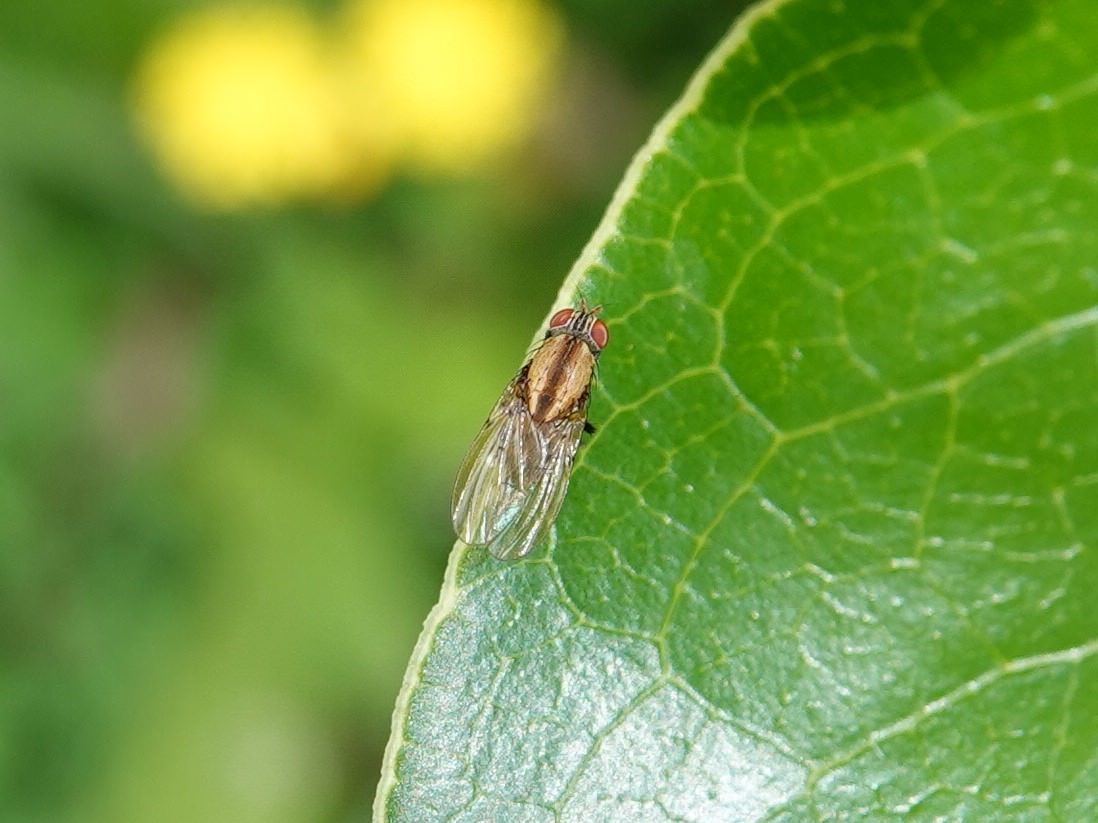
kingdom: Animalia
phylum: Arthropoda
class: Insecta
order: Diptera
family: Lauxaniidae
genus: Sapromyza
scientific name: Sapromyza neozelandica
